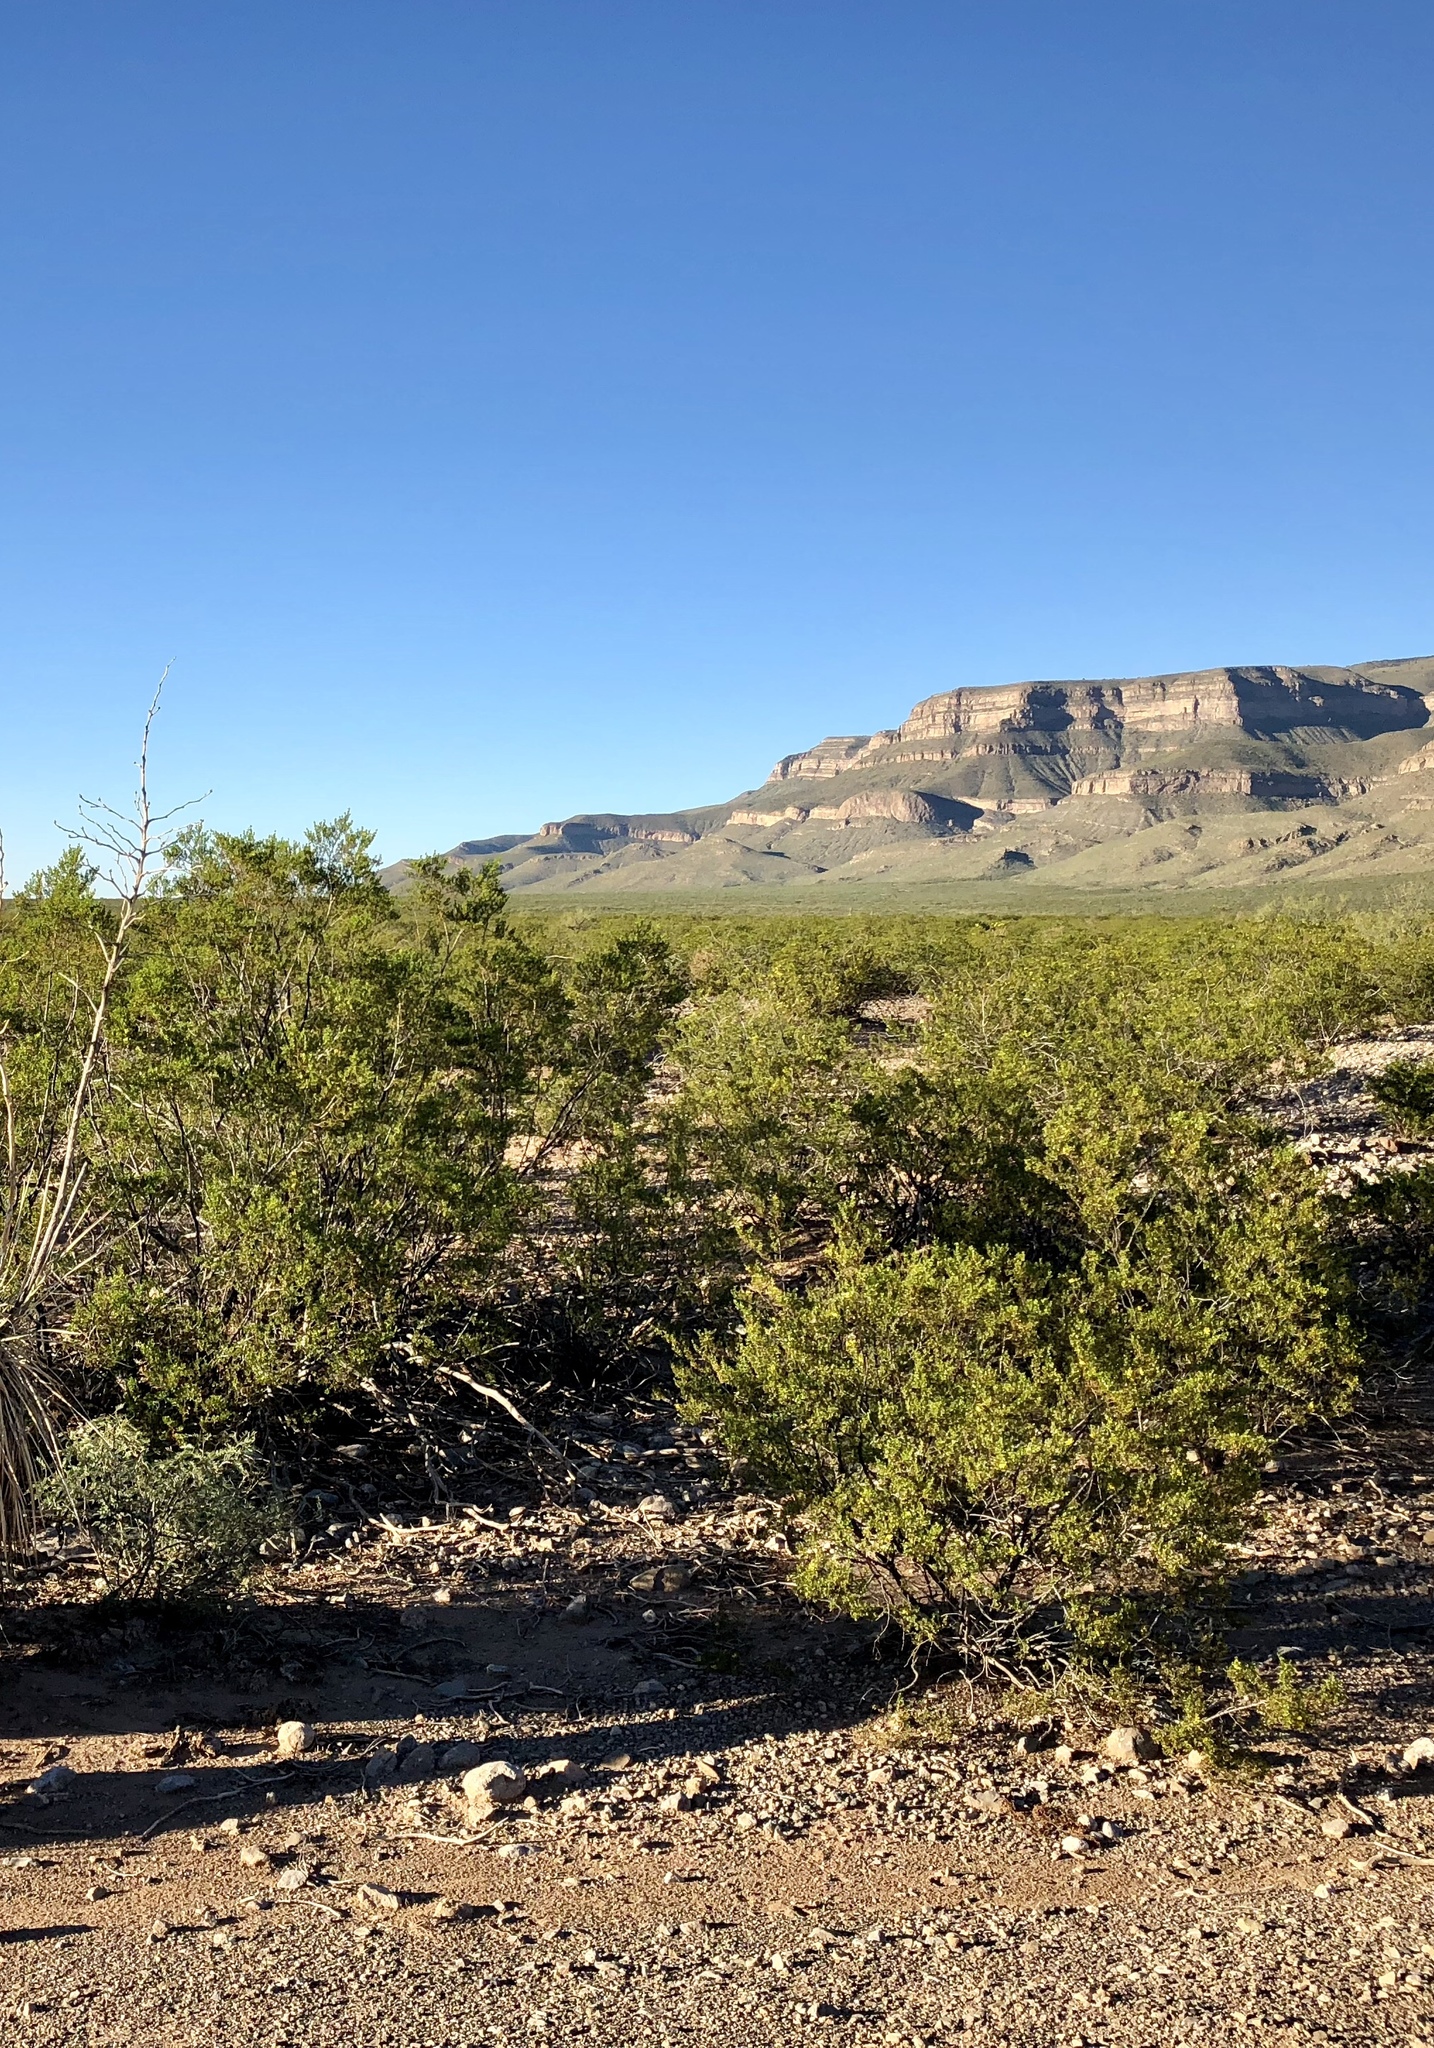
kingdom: Plantae
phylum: Tracheophyta
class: Magnoliopsida
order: Zygophyllales
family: Zygophyllaceae
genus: Larrea
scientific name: Larrea tridentata
